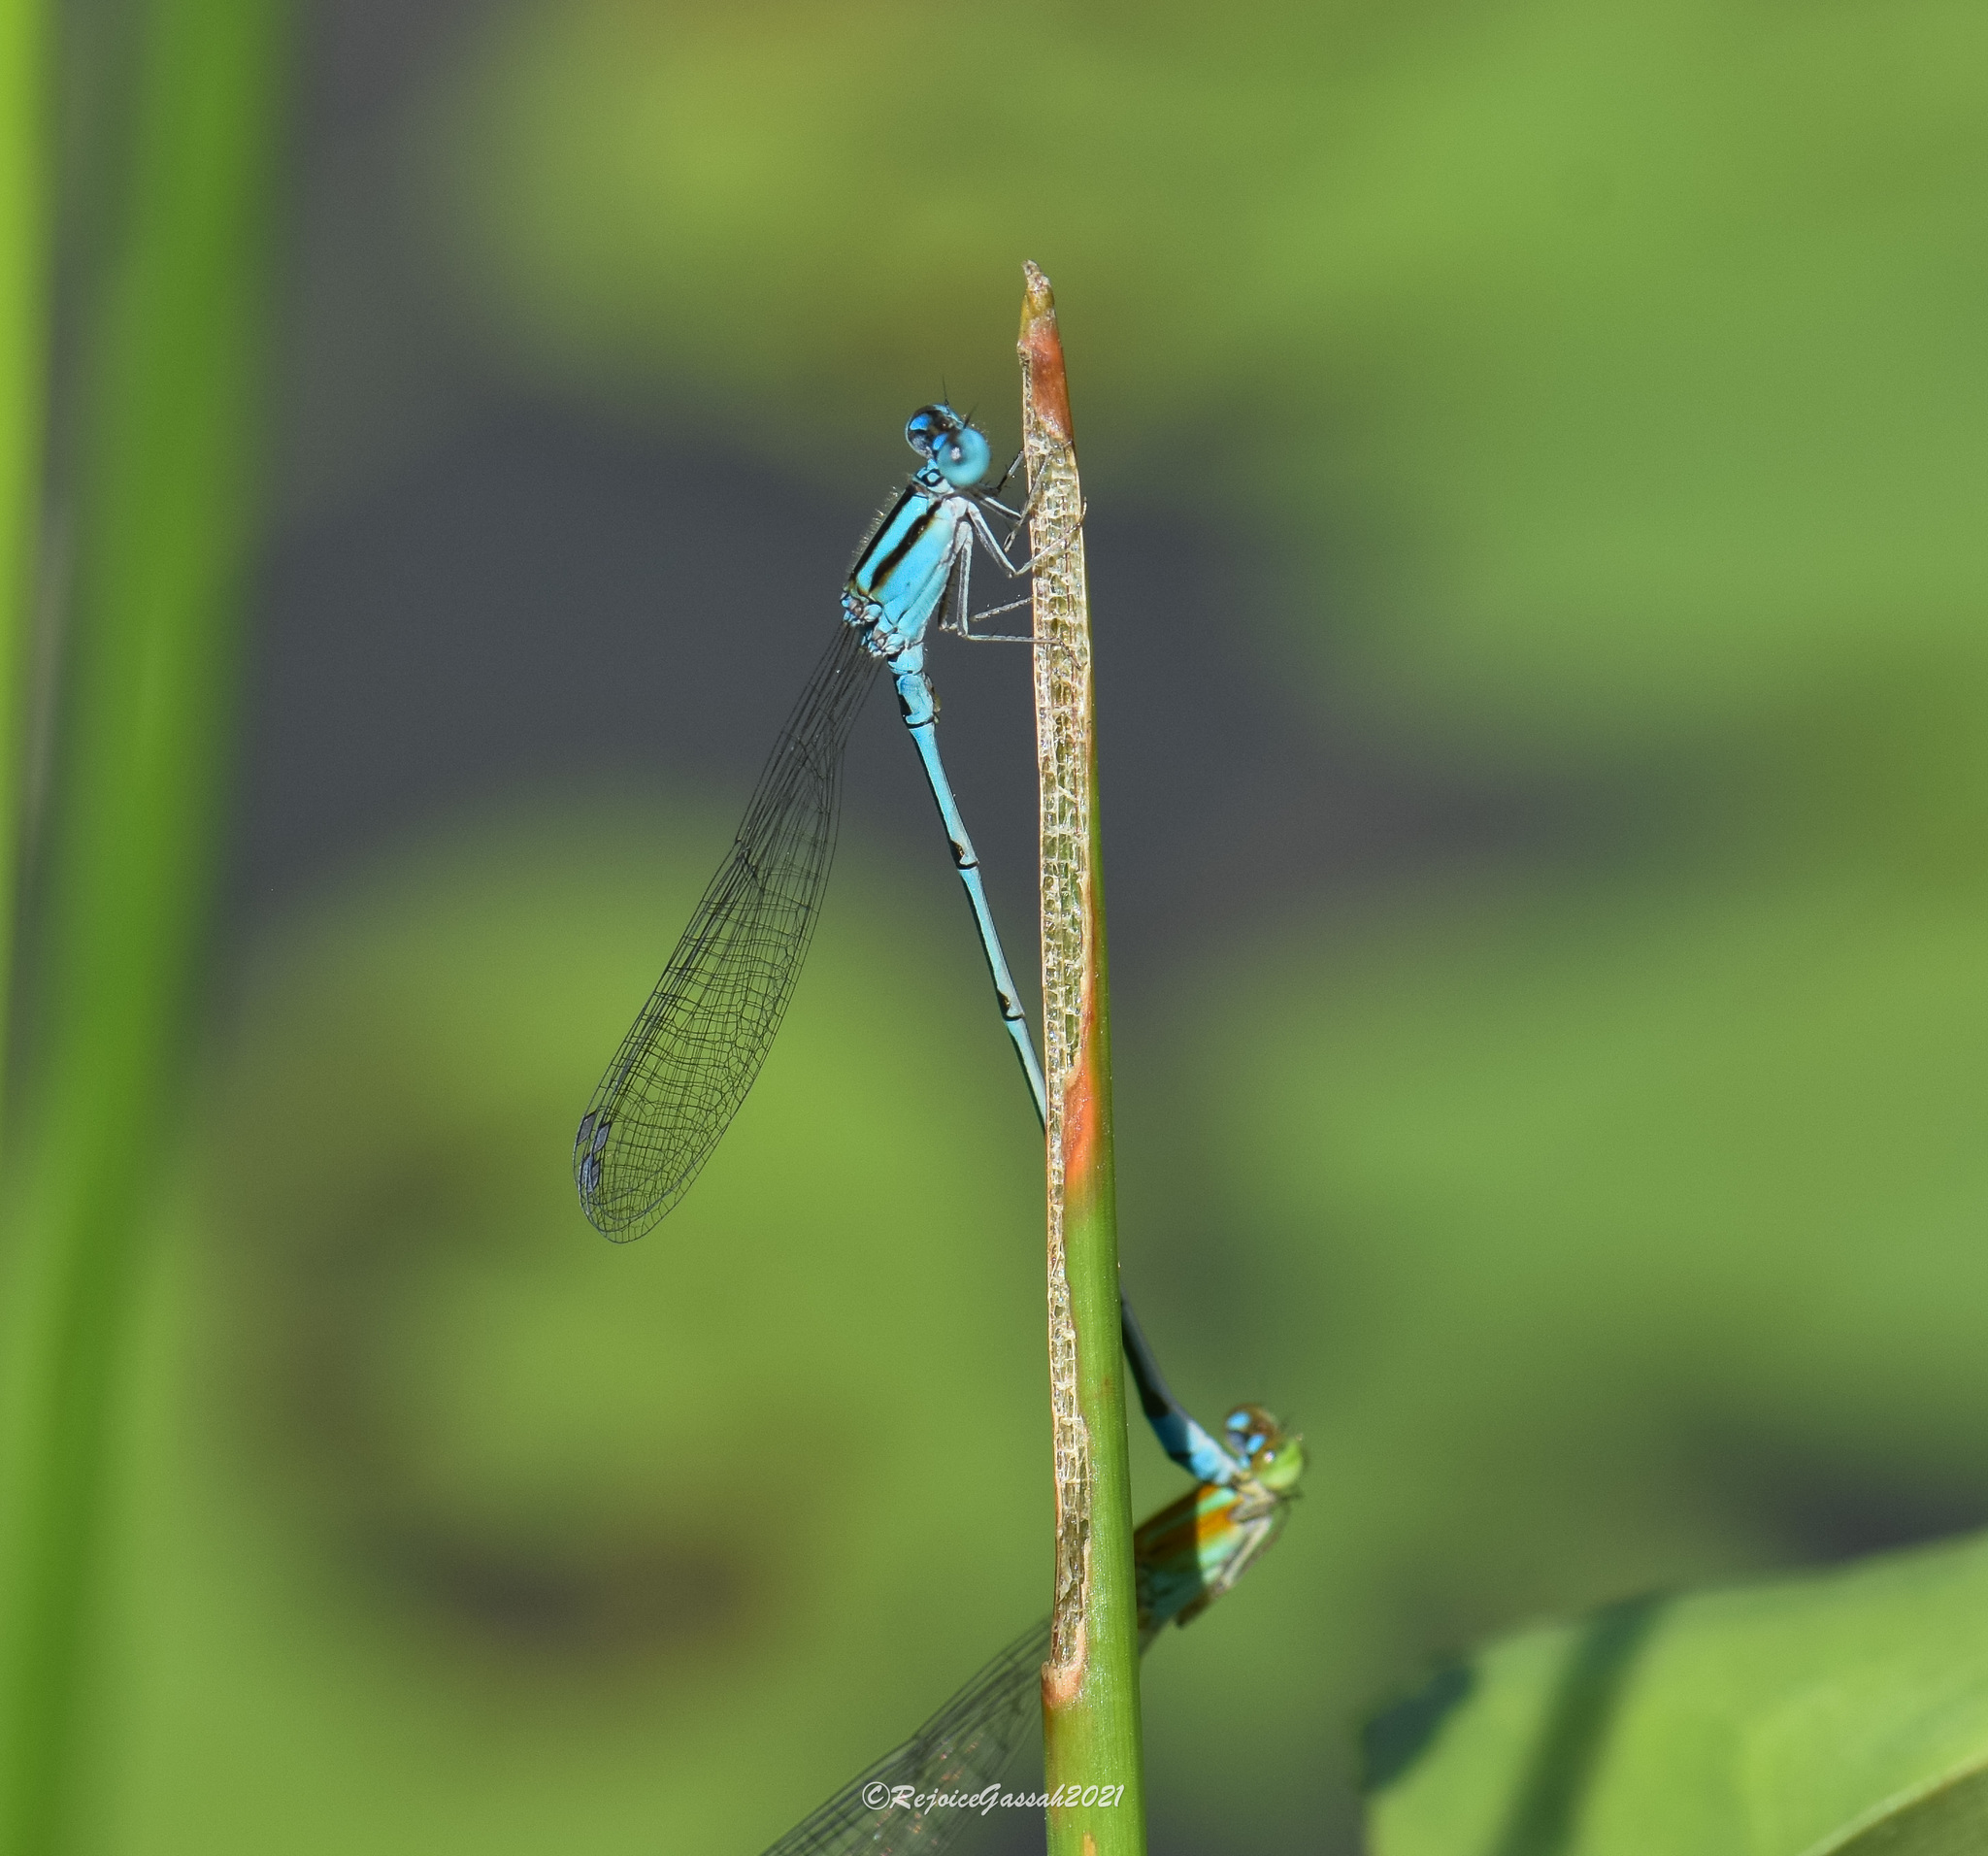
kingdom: Animalia
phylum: Arthropoda
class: Insecta
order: Odonata
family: Coenagrionidae
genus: Pseudagrion
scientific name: Pseudagrion microcephalum
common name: Blue riverdamsel
